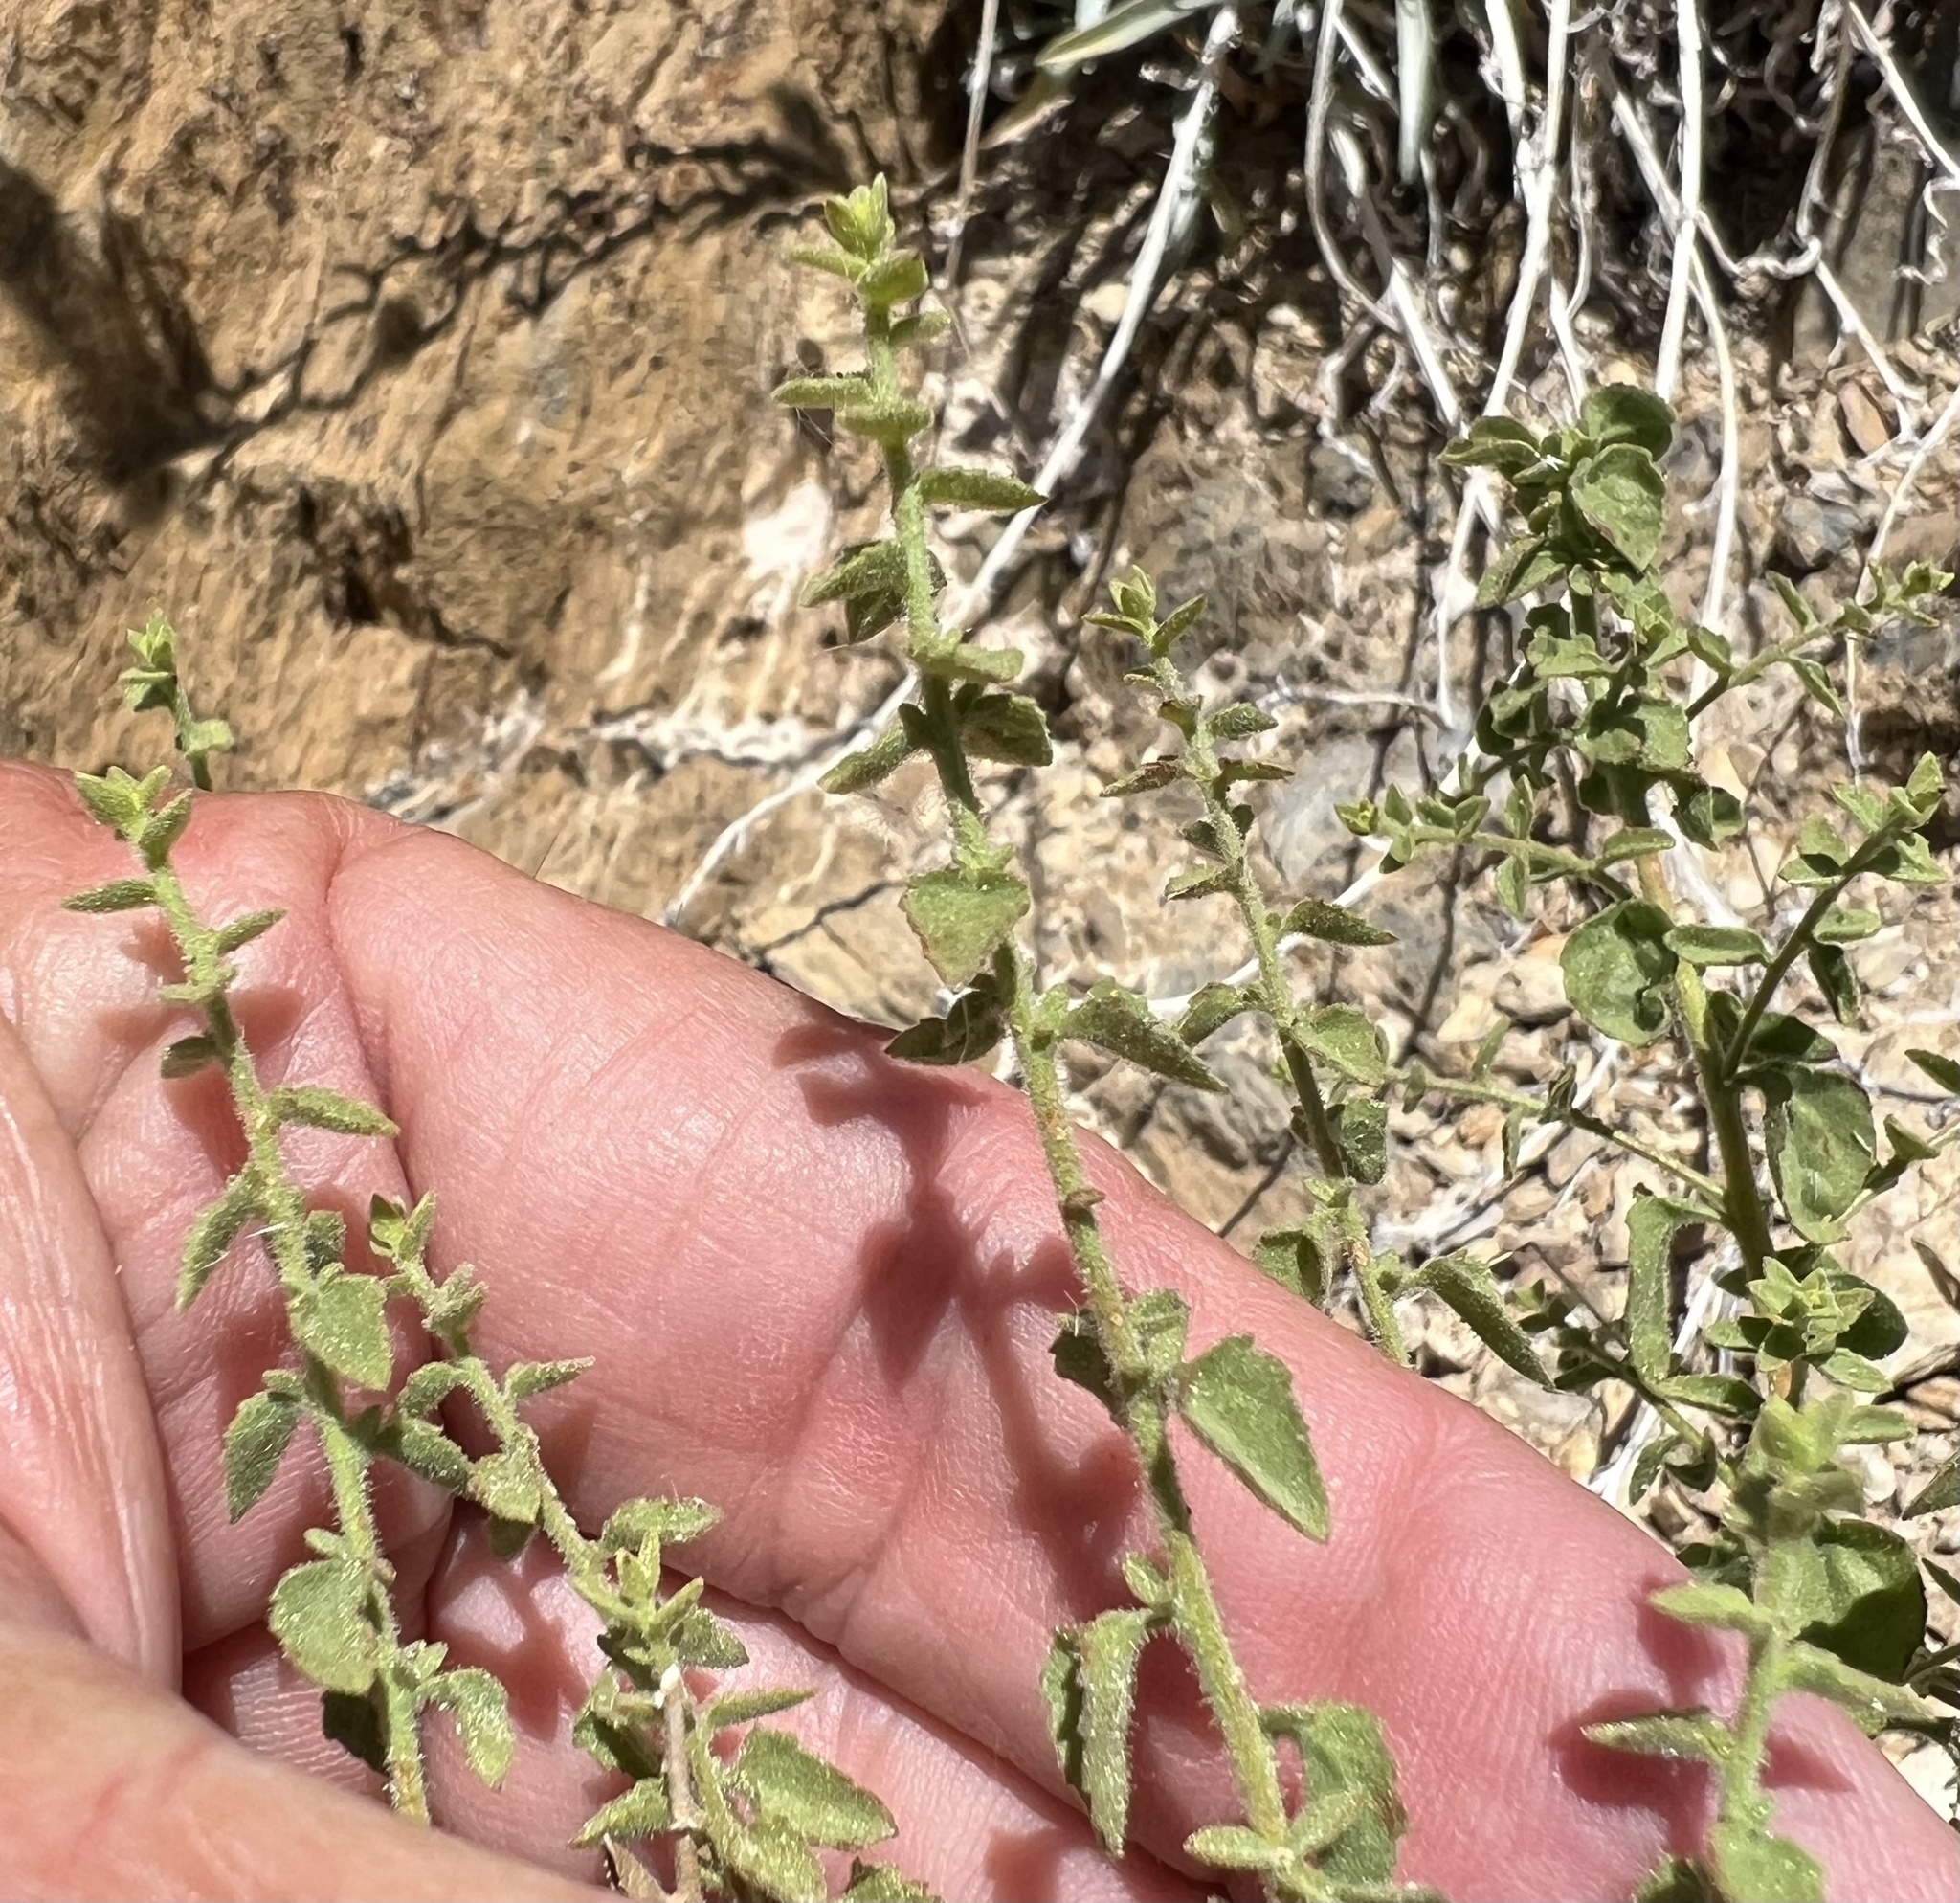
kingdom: Plantae
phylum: Tracheophyta
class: Magnoliopsida
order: Asterales
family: Asteraceae
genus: Brickellia
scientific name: Brickellia microphylla
